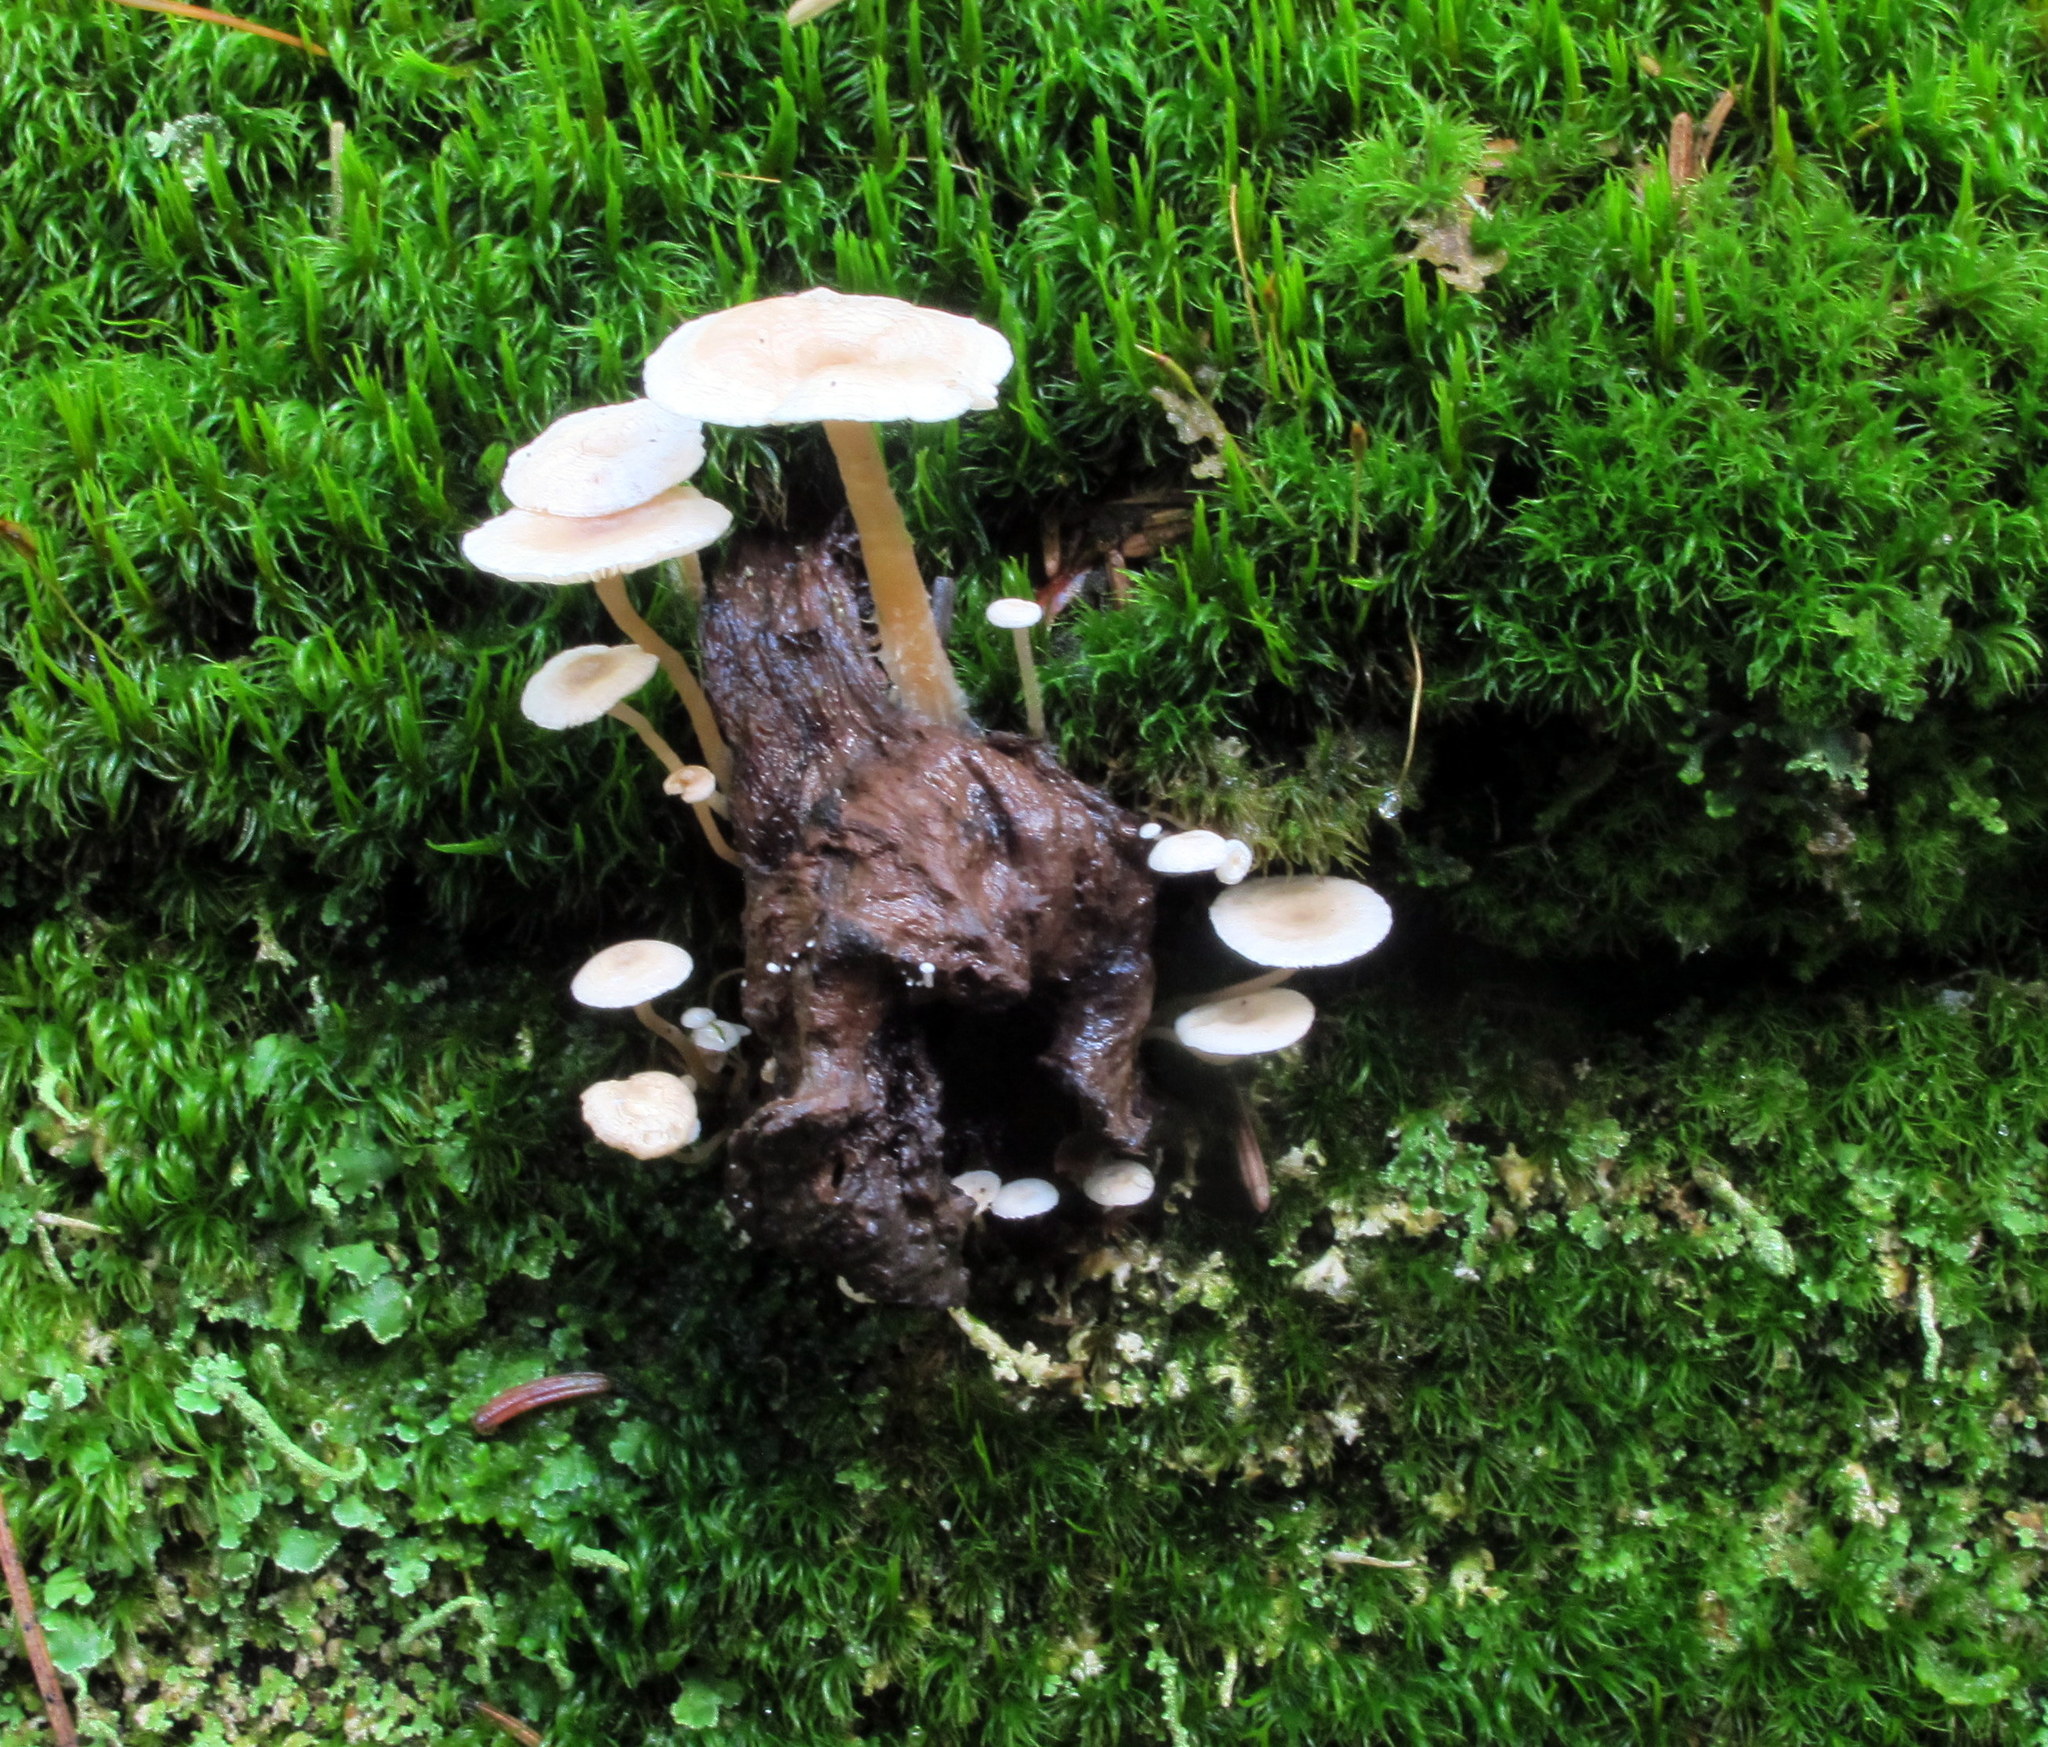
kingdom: Fungi
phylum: Basidiomycota
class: Agaricomycetes
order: Agaricales
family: Tricholomataceae
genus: Collybia
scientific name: Collybia tuberosa
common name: Lentil shanklet
